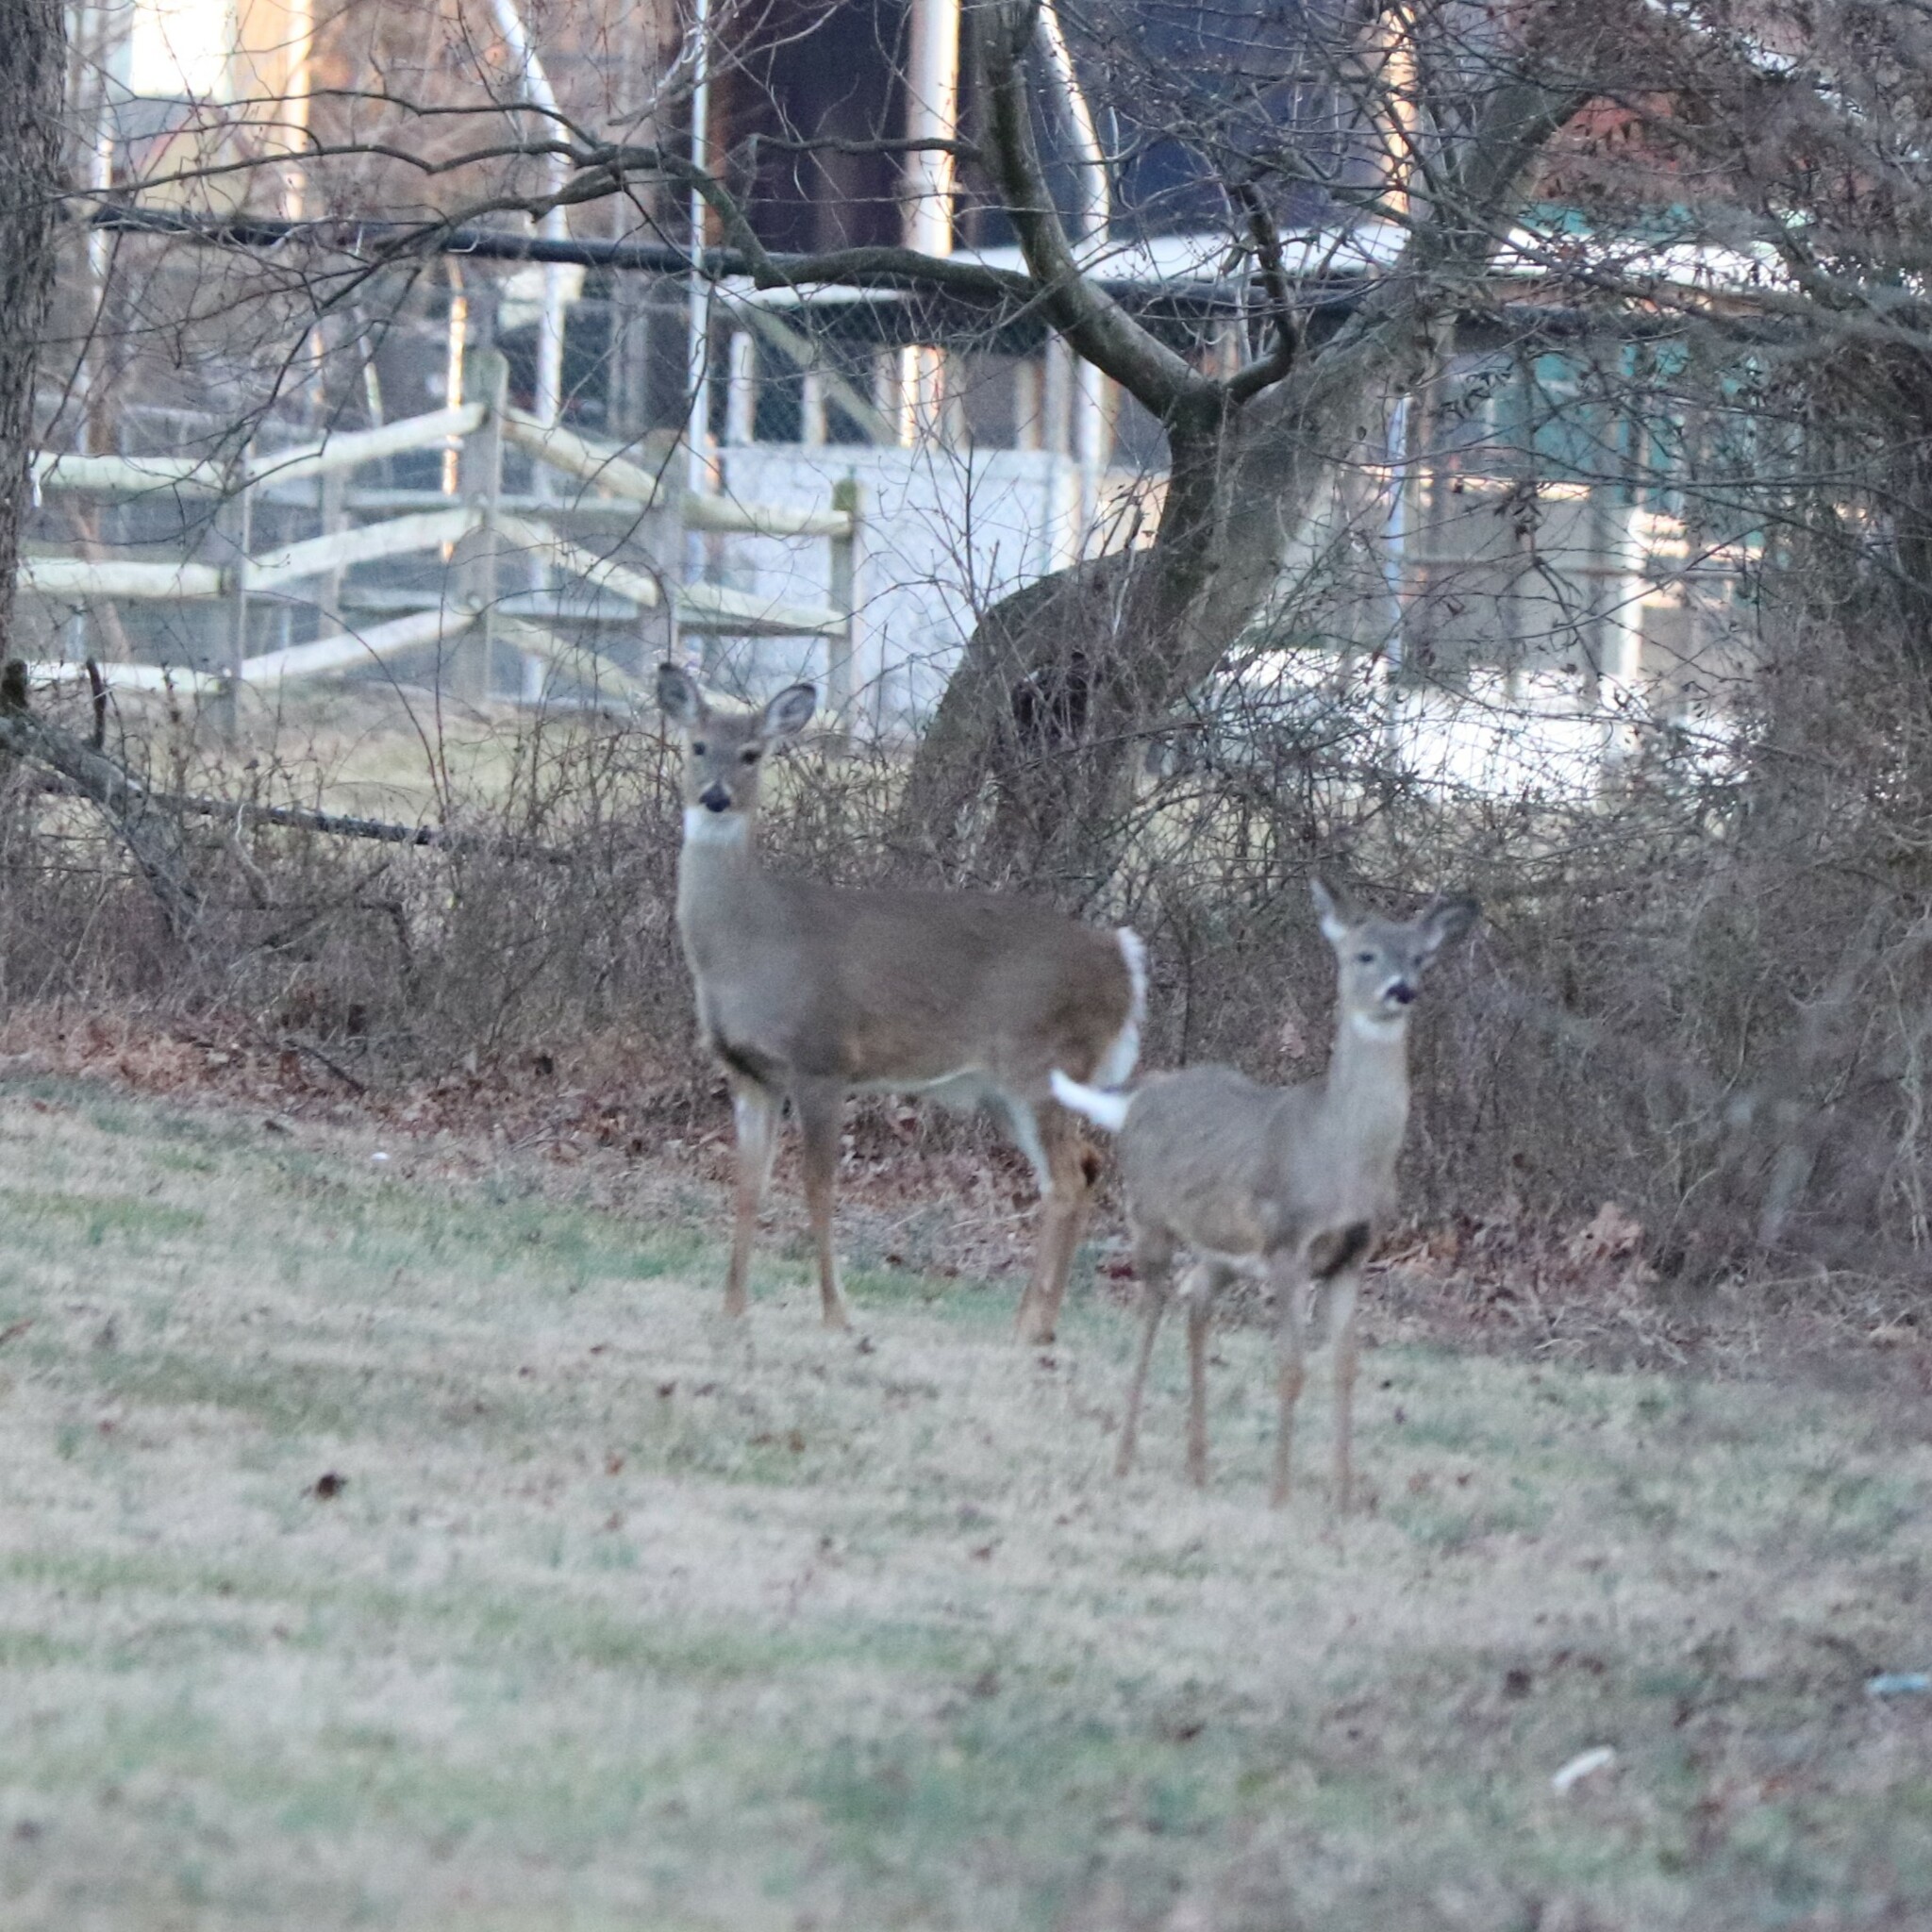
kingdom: Animalia
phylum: Chordata
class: Mammalia
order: Artiodactyla
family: Cervidae
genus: Odocoileus
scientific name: Odocoileus virginianus
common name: White-tailed deer
